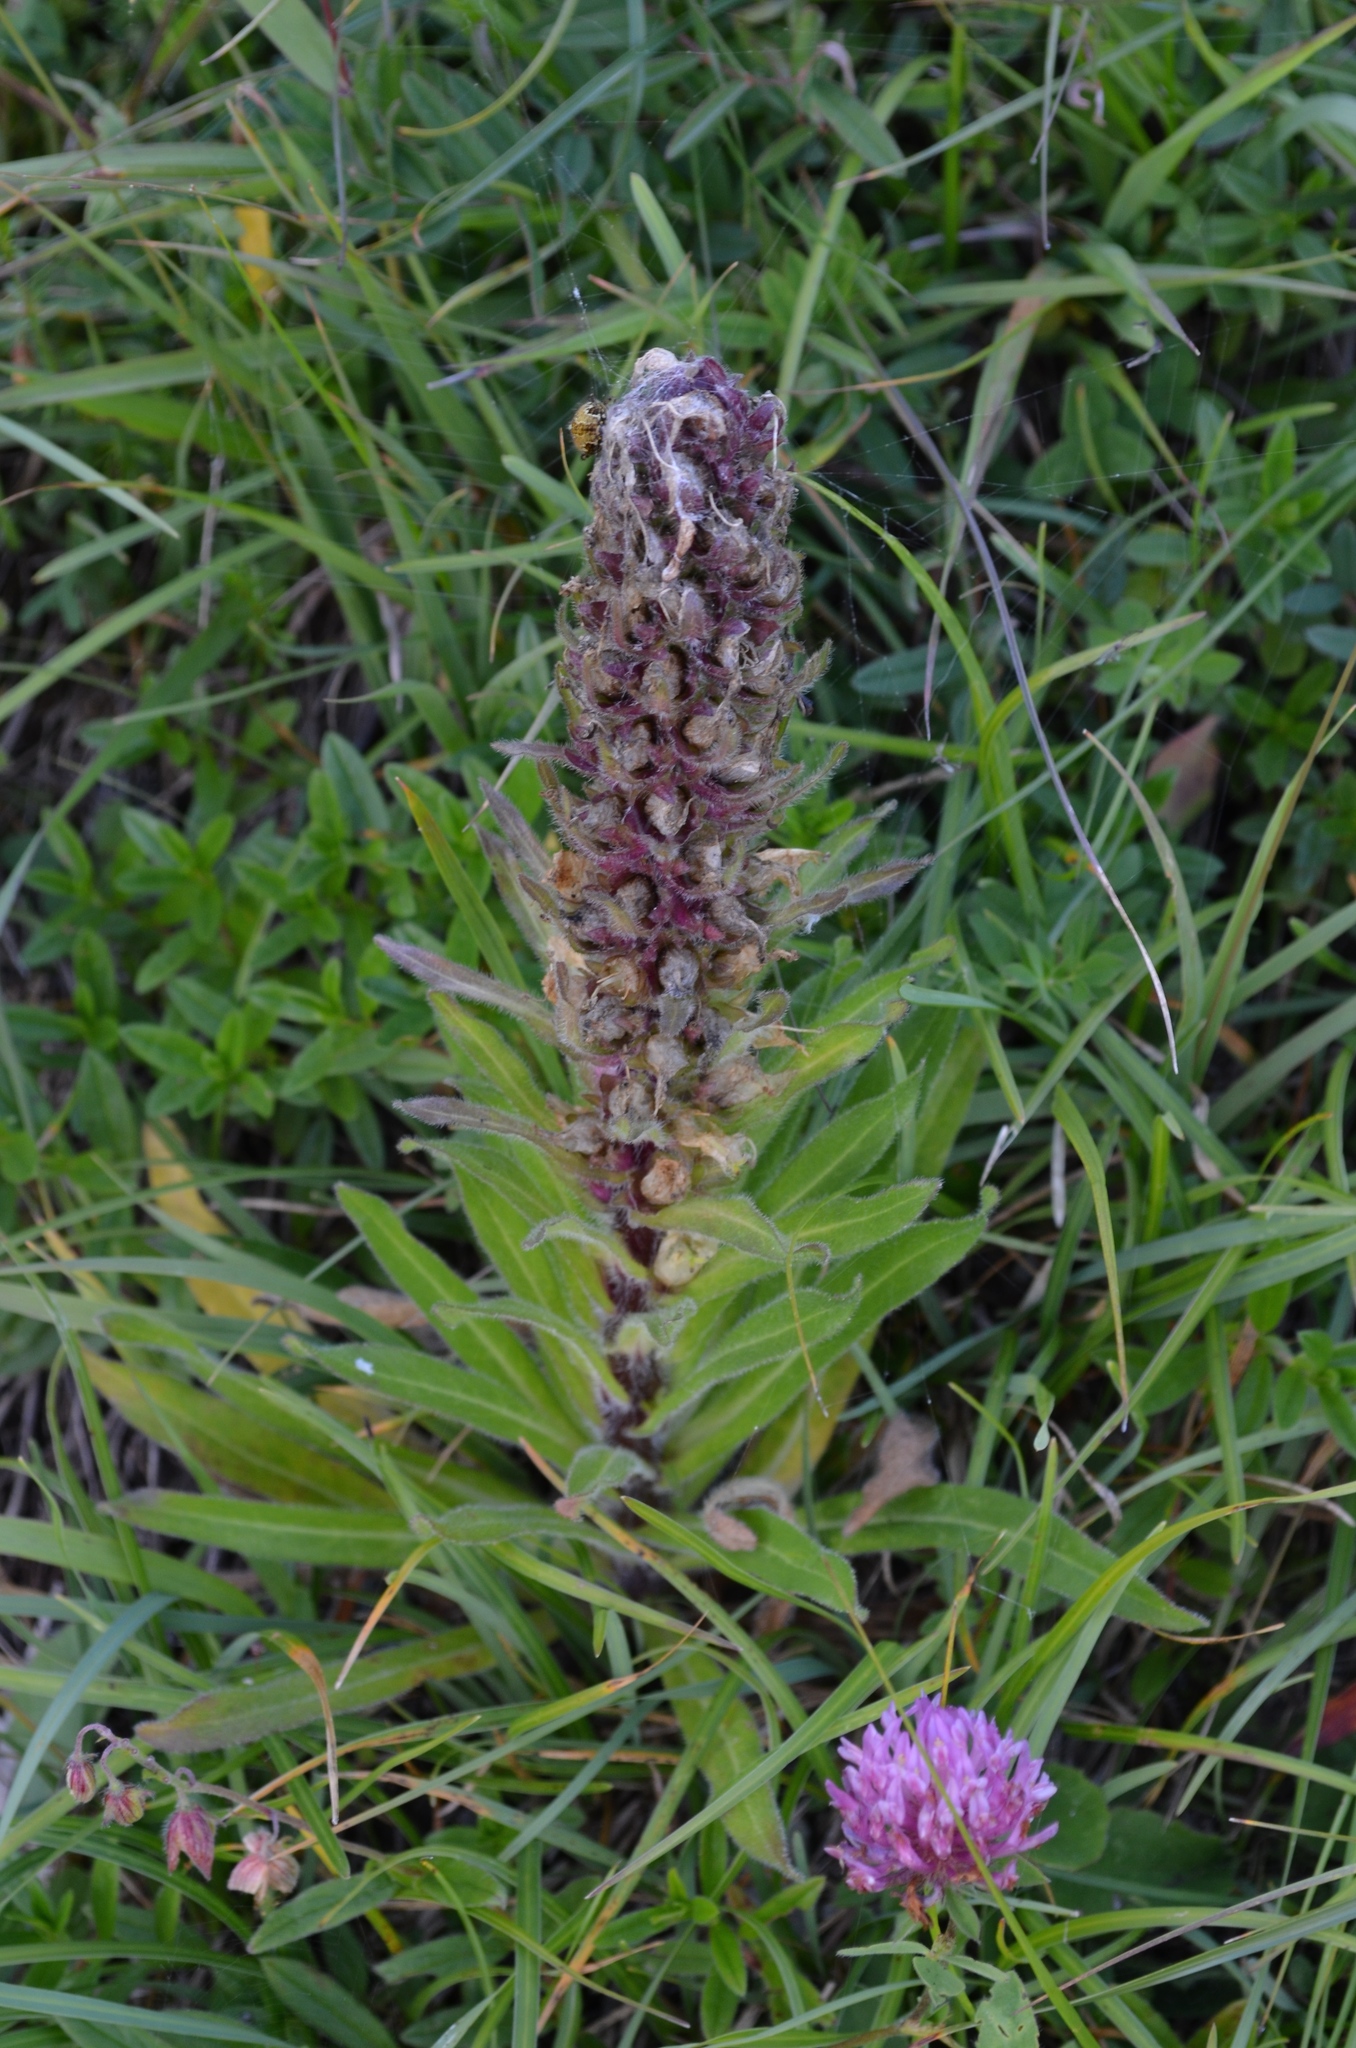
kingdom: Plantae
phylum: Tracheophyta
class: Magnoliopsida
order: Asterales
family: Campanulaceae
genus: Campanula
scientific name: Campanula thyrsoides
